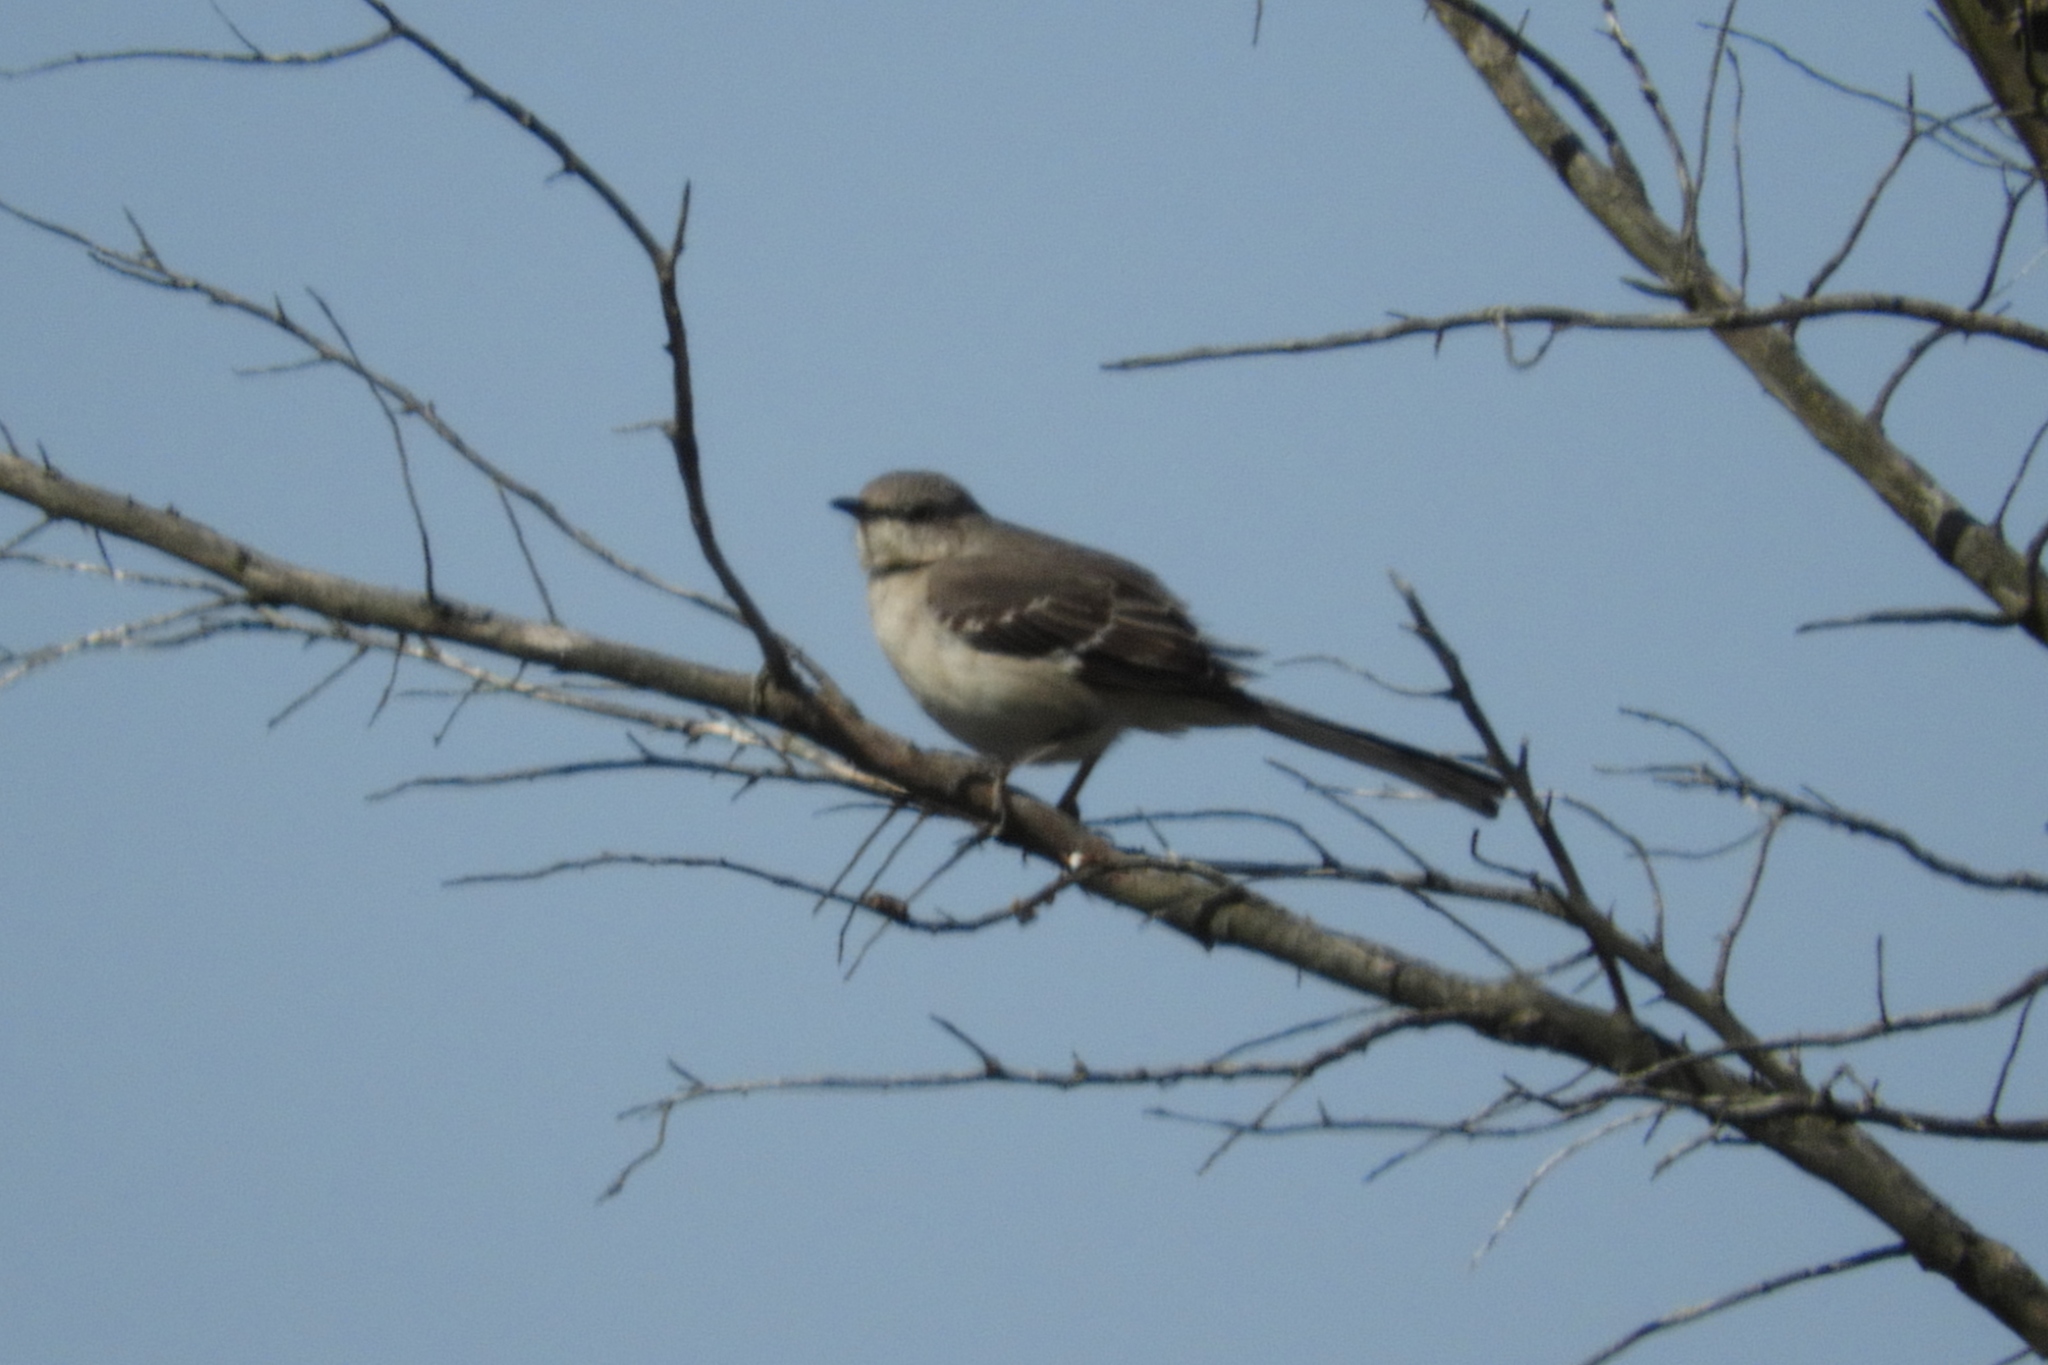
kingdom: Animalia
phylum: Chordata
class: Aves
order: Passeriformes
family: Mimidae
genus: Mimus
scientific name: Mimus polyglottos
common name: Northern mockingbird
